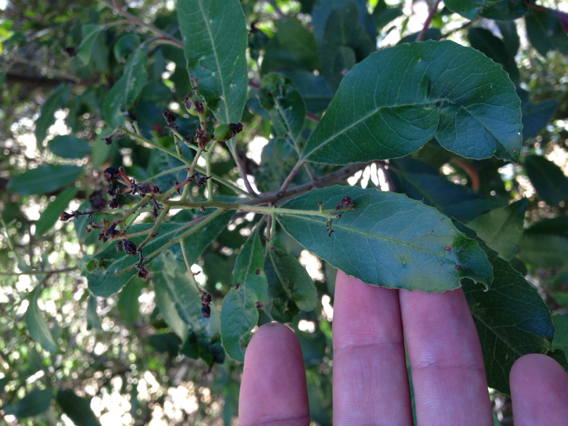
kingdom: Plantae
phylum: Tracheophyta
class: Magnoliopsida
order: Rosales
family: Rosaceae
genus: Heteromeles
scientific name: Heteromeles arbutifolia
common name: California-holly
